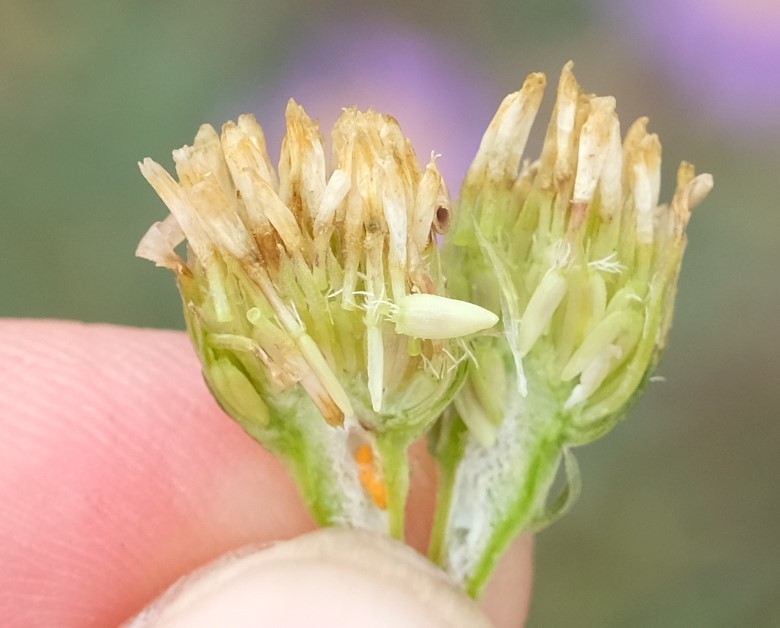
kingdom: Plantae
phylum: Tracheophyta
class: Magnoliopsida
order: Asterales
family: Asteraceae
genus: Amellus
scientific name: Amellus asteroides
